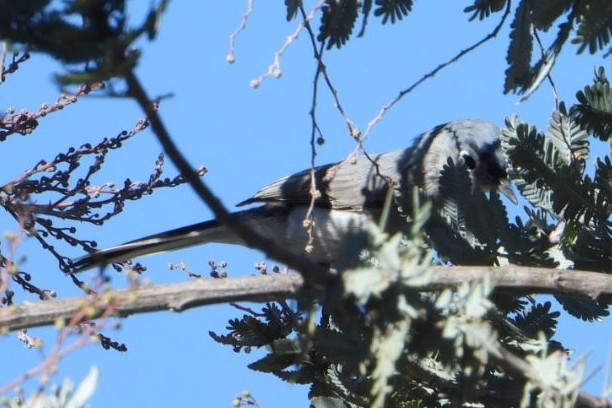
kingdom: Animalia
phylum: Chordata
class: Aves
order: Passeriformes
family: Polioptilidae
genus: Polioptila
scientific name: Polioptila caerulea
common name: Blue-gray gnatcatcher
